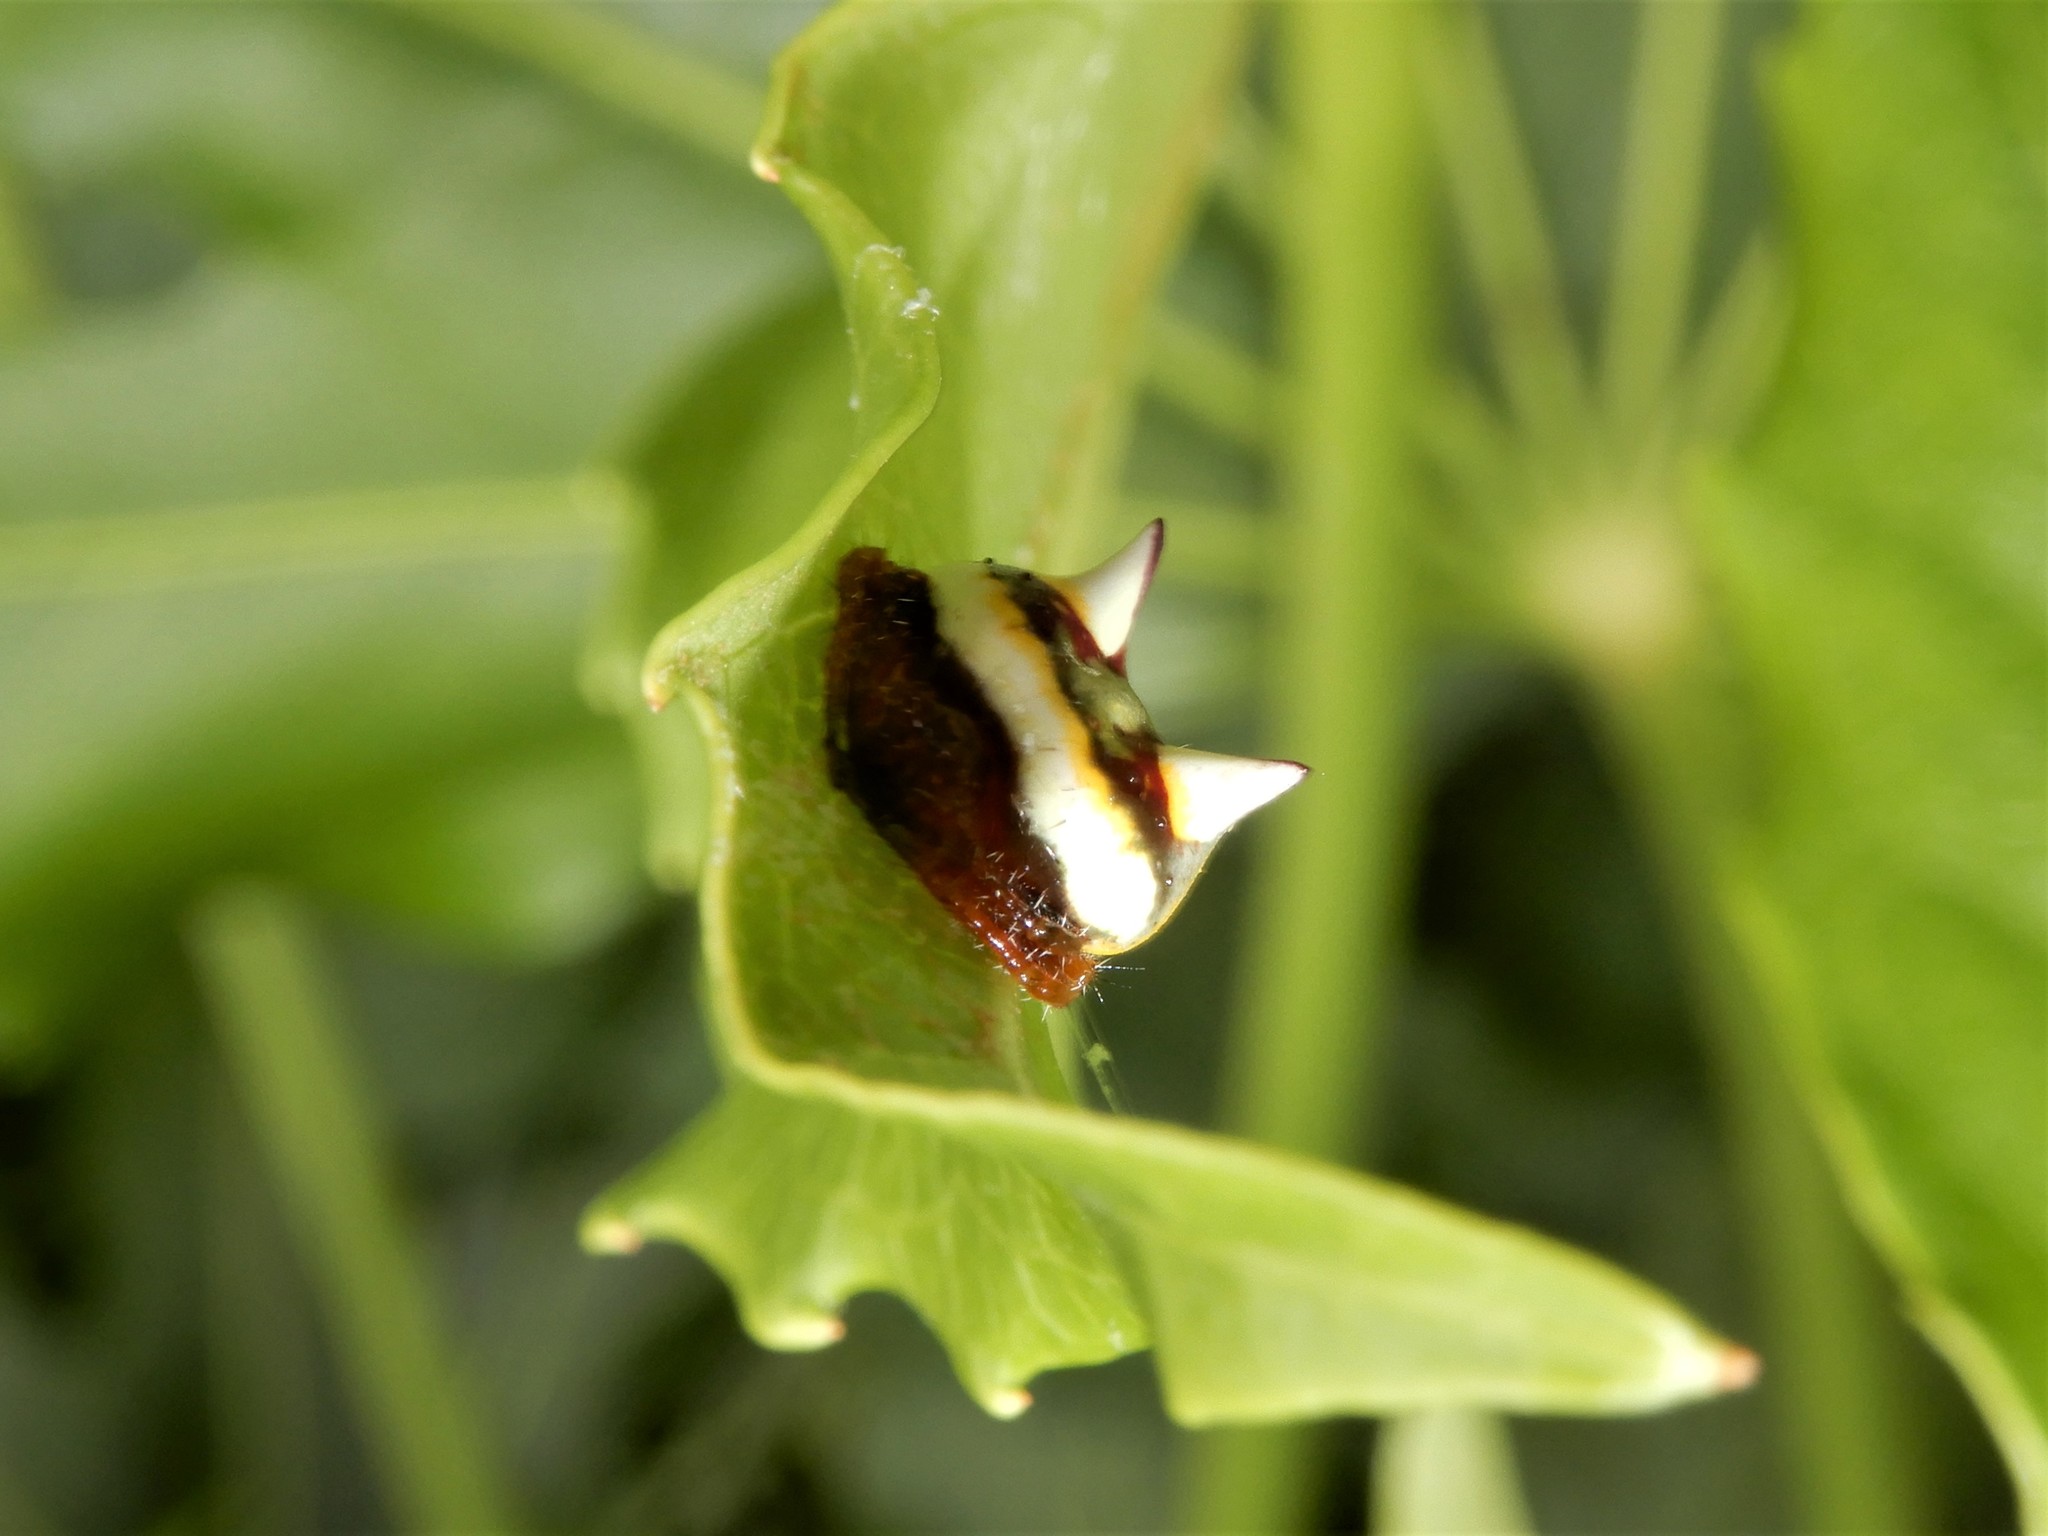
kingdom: Animalia
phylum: Arthropoda
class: Arachnida
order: Araneae
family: Araneidae
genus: Poecilopachys
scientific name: Poecilopachys australasia
